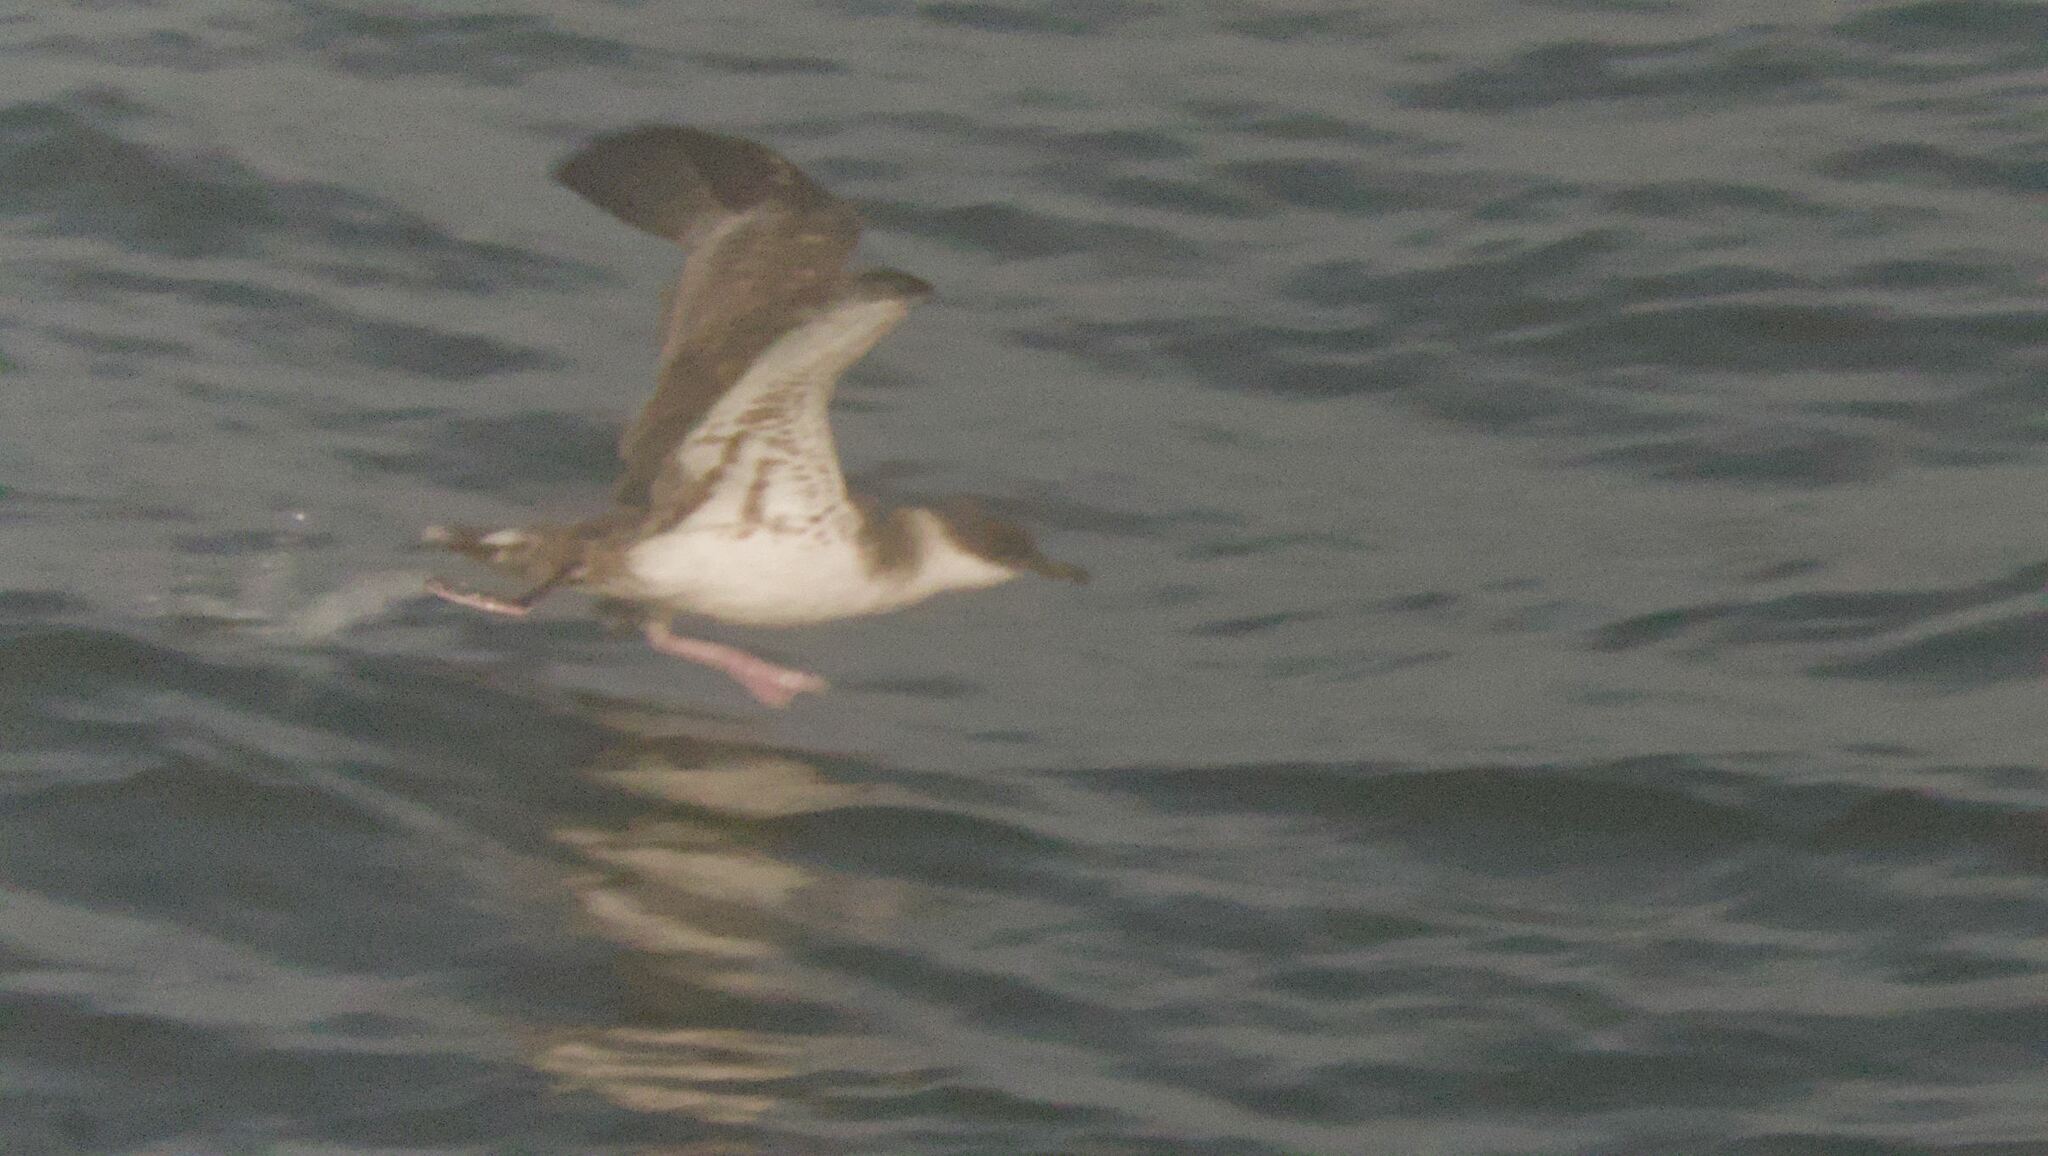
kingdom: Animalia
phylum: Chordata
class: Aves
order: Procellariiformes
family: Procellariidae
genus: Puffinus
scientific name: Puffinus gravis
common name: Great shearwater
